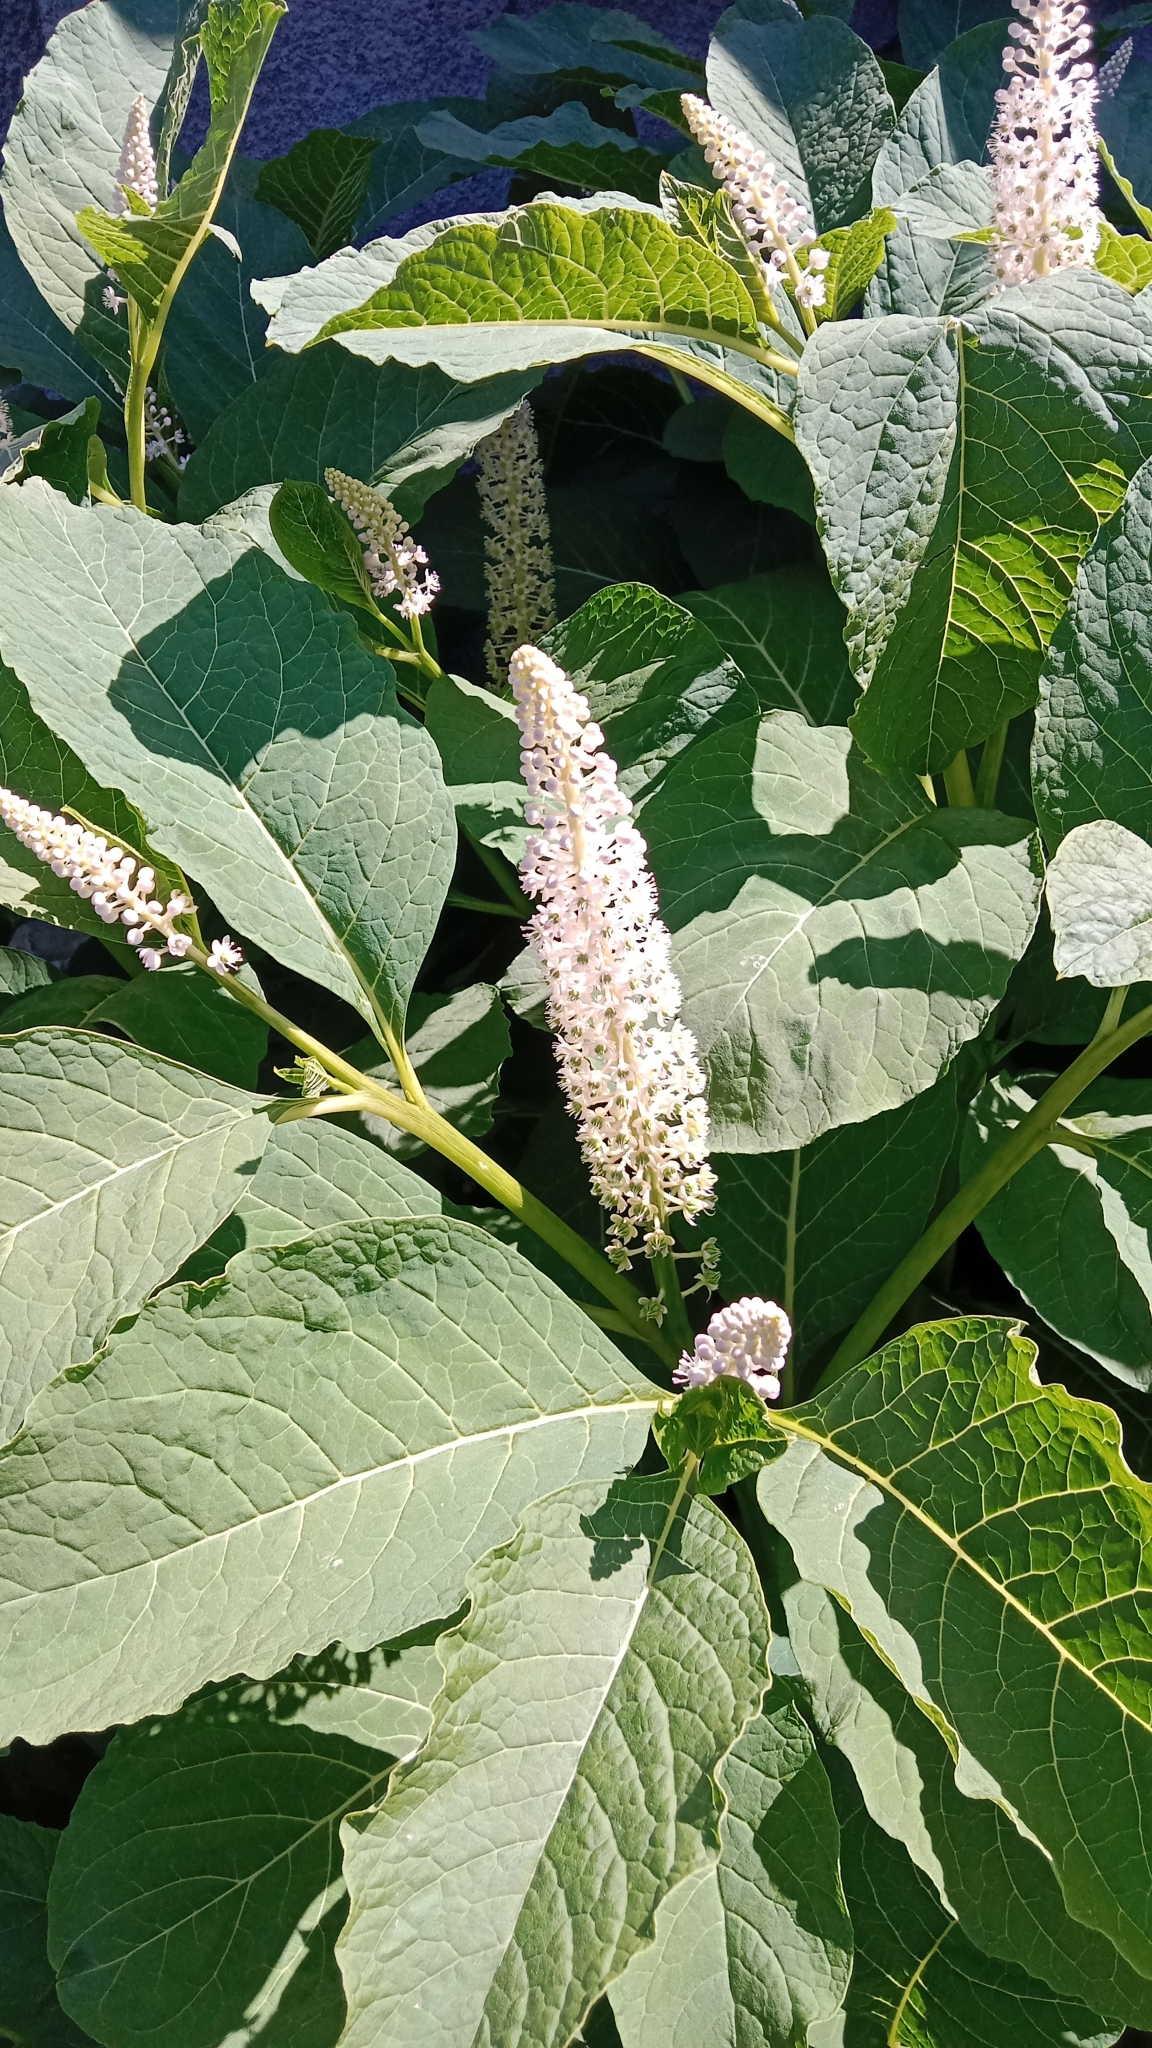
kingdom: Plantae
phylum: Tracheophyta
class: Magnoliopsida
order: Caryophyllales
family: Phytolaccaceae
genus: Phytolacca
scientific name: Phytolacca acinosa
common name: Indian pokeweed
